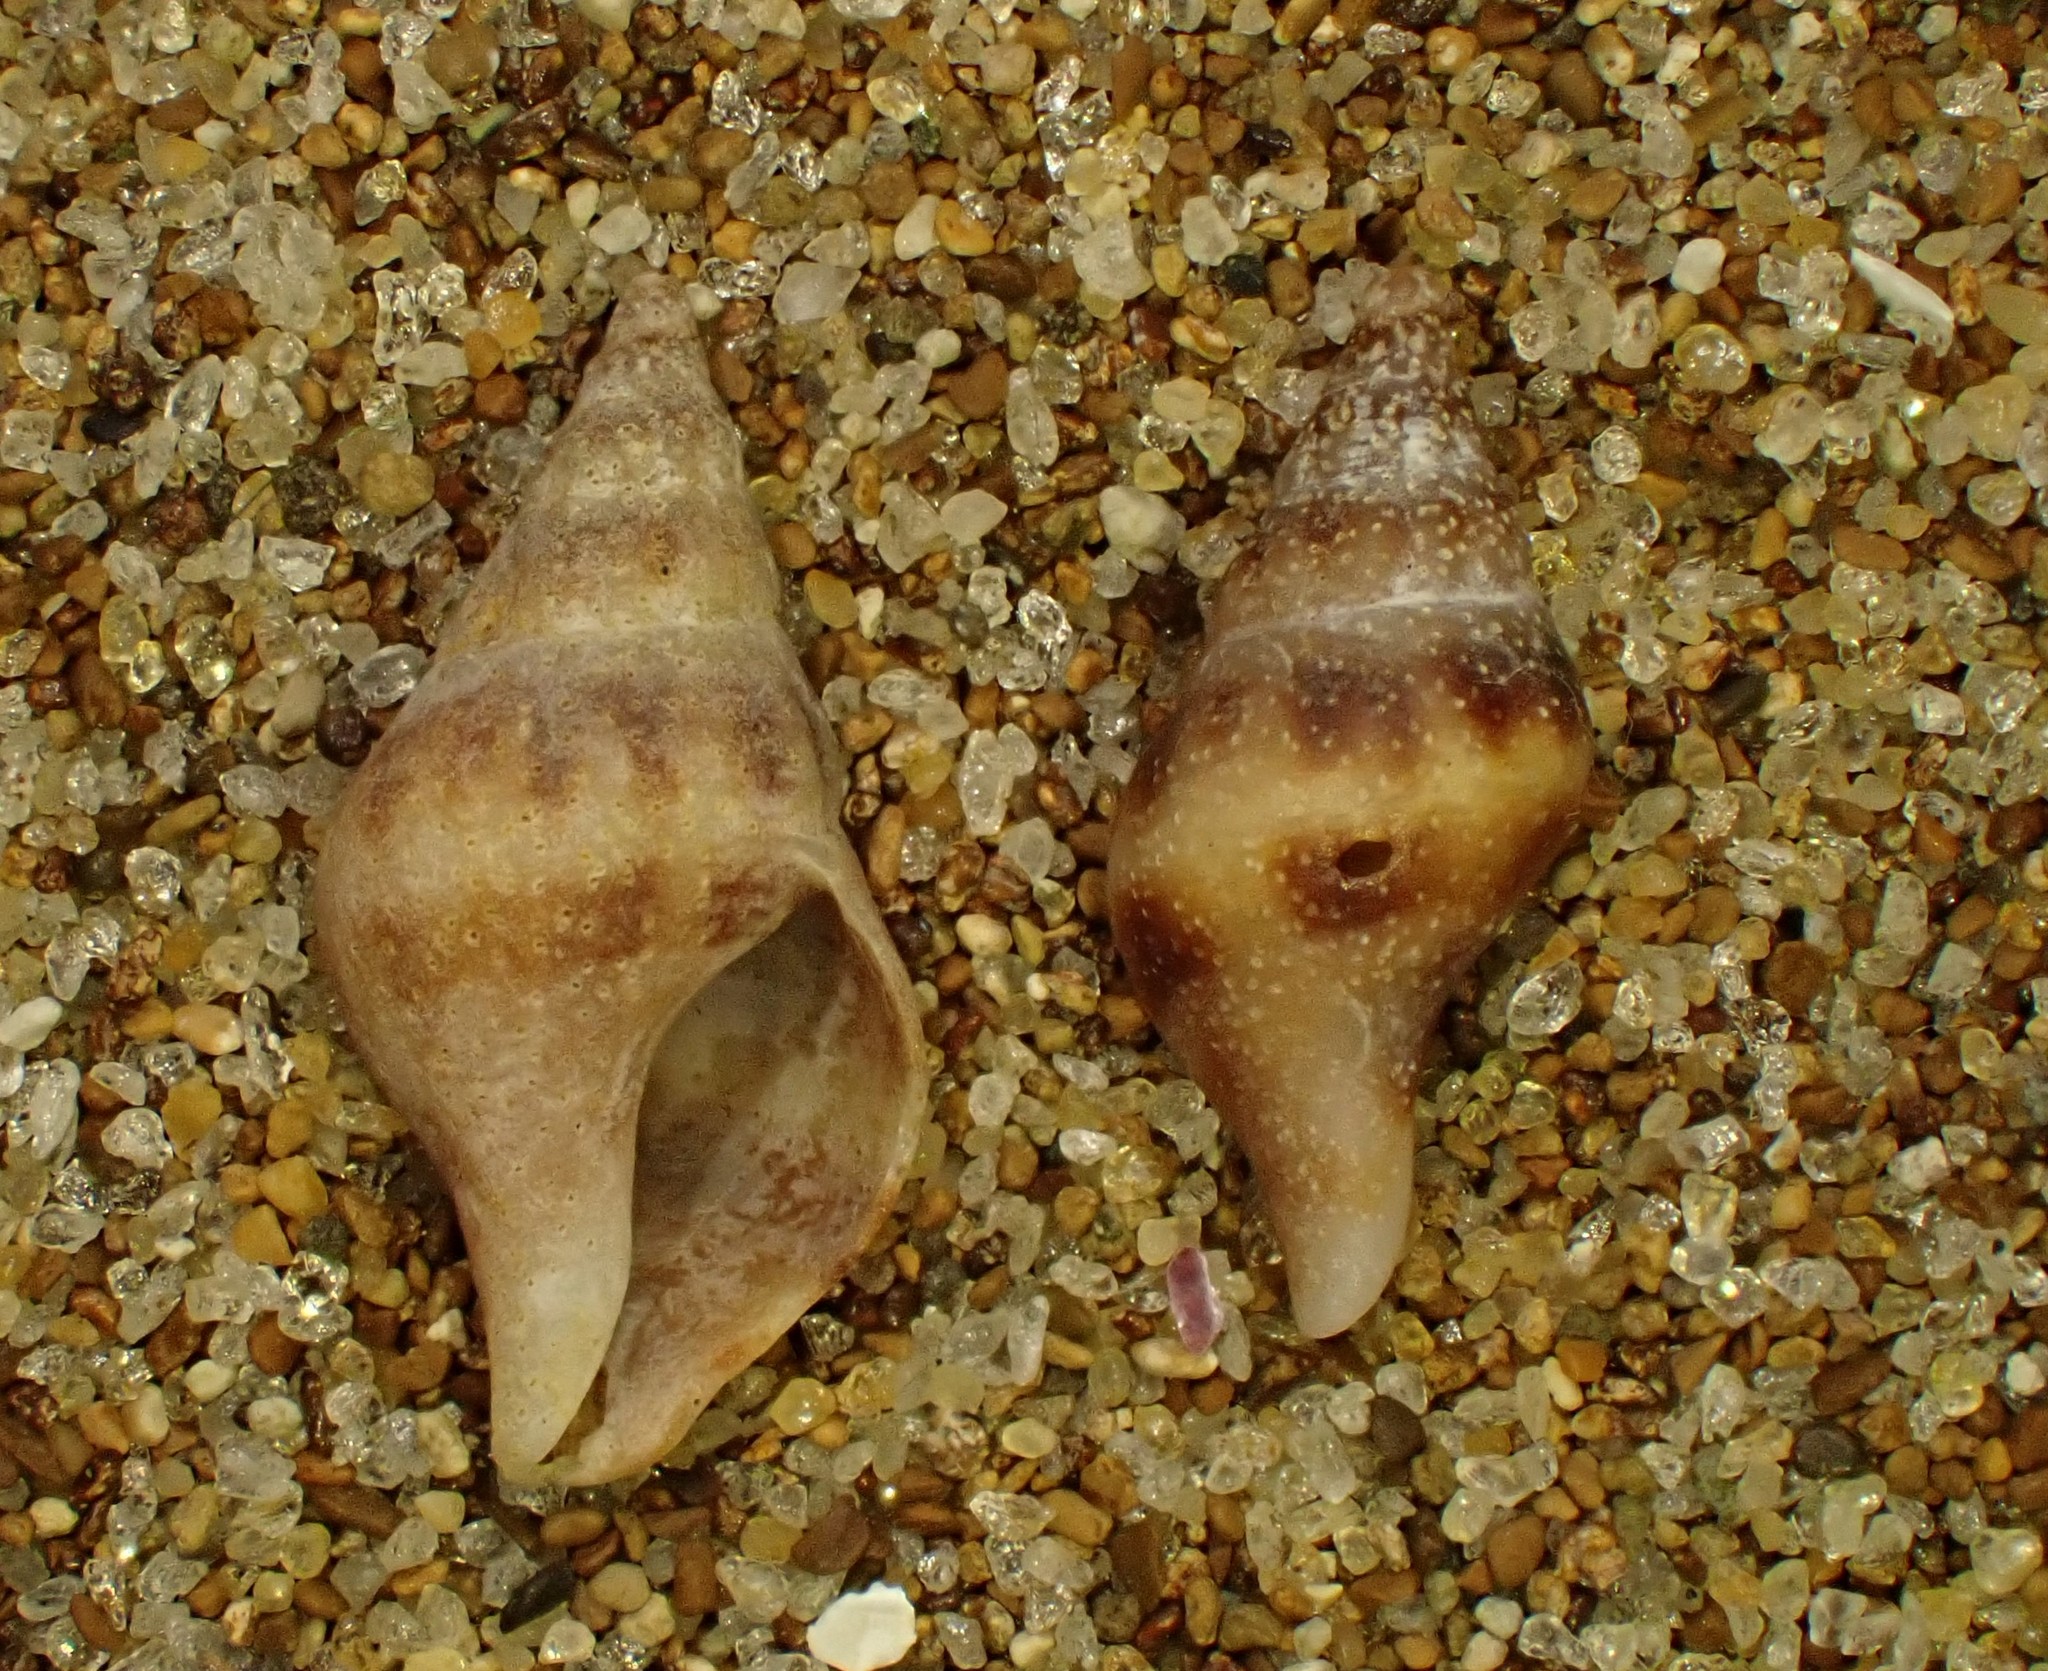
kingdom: Animalia
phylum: Mollusca
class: Gastropoda
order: Neogastropoda
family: Tudiclidae
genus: Buccinulum
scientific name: Buccinulum vittatum
